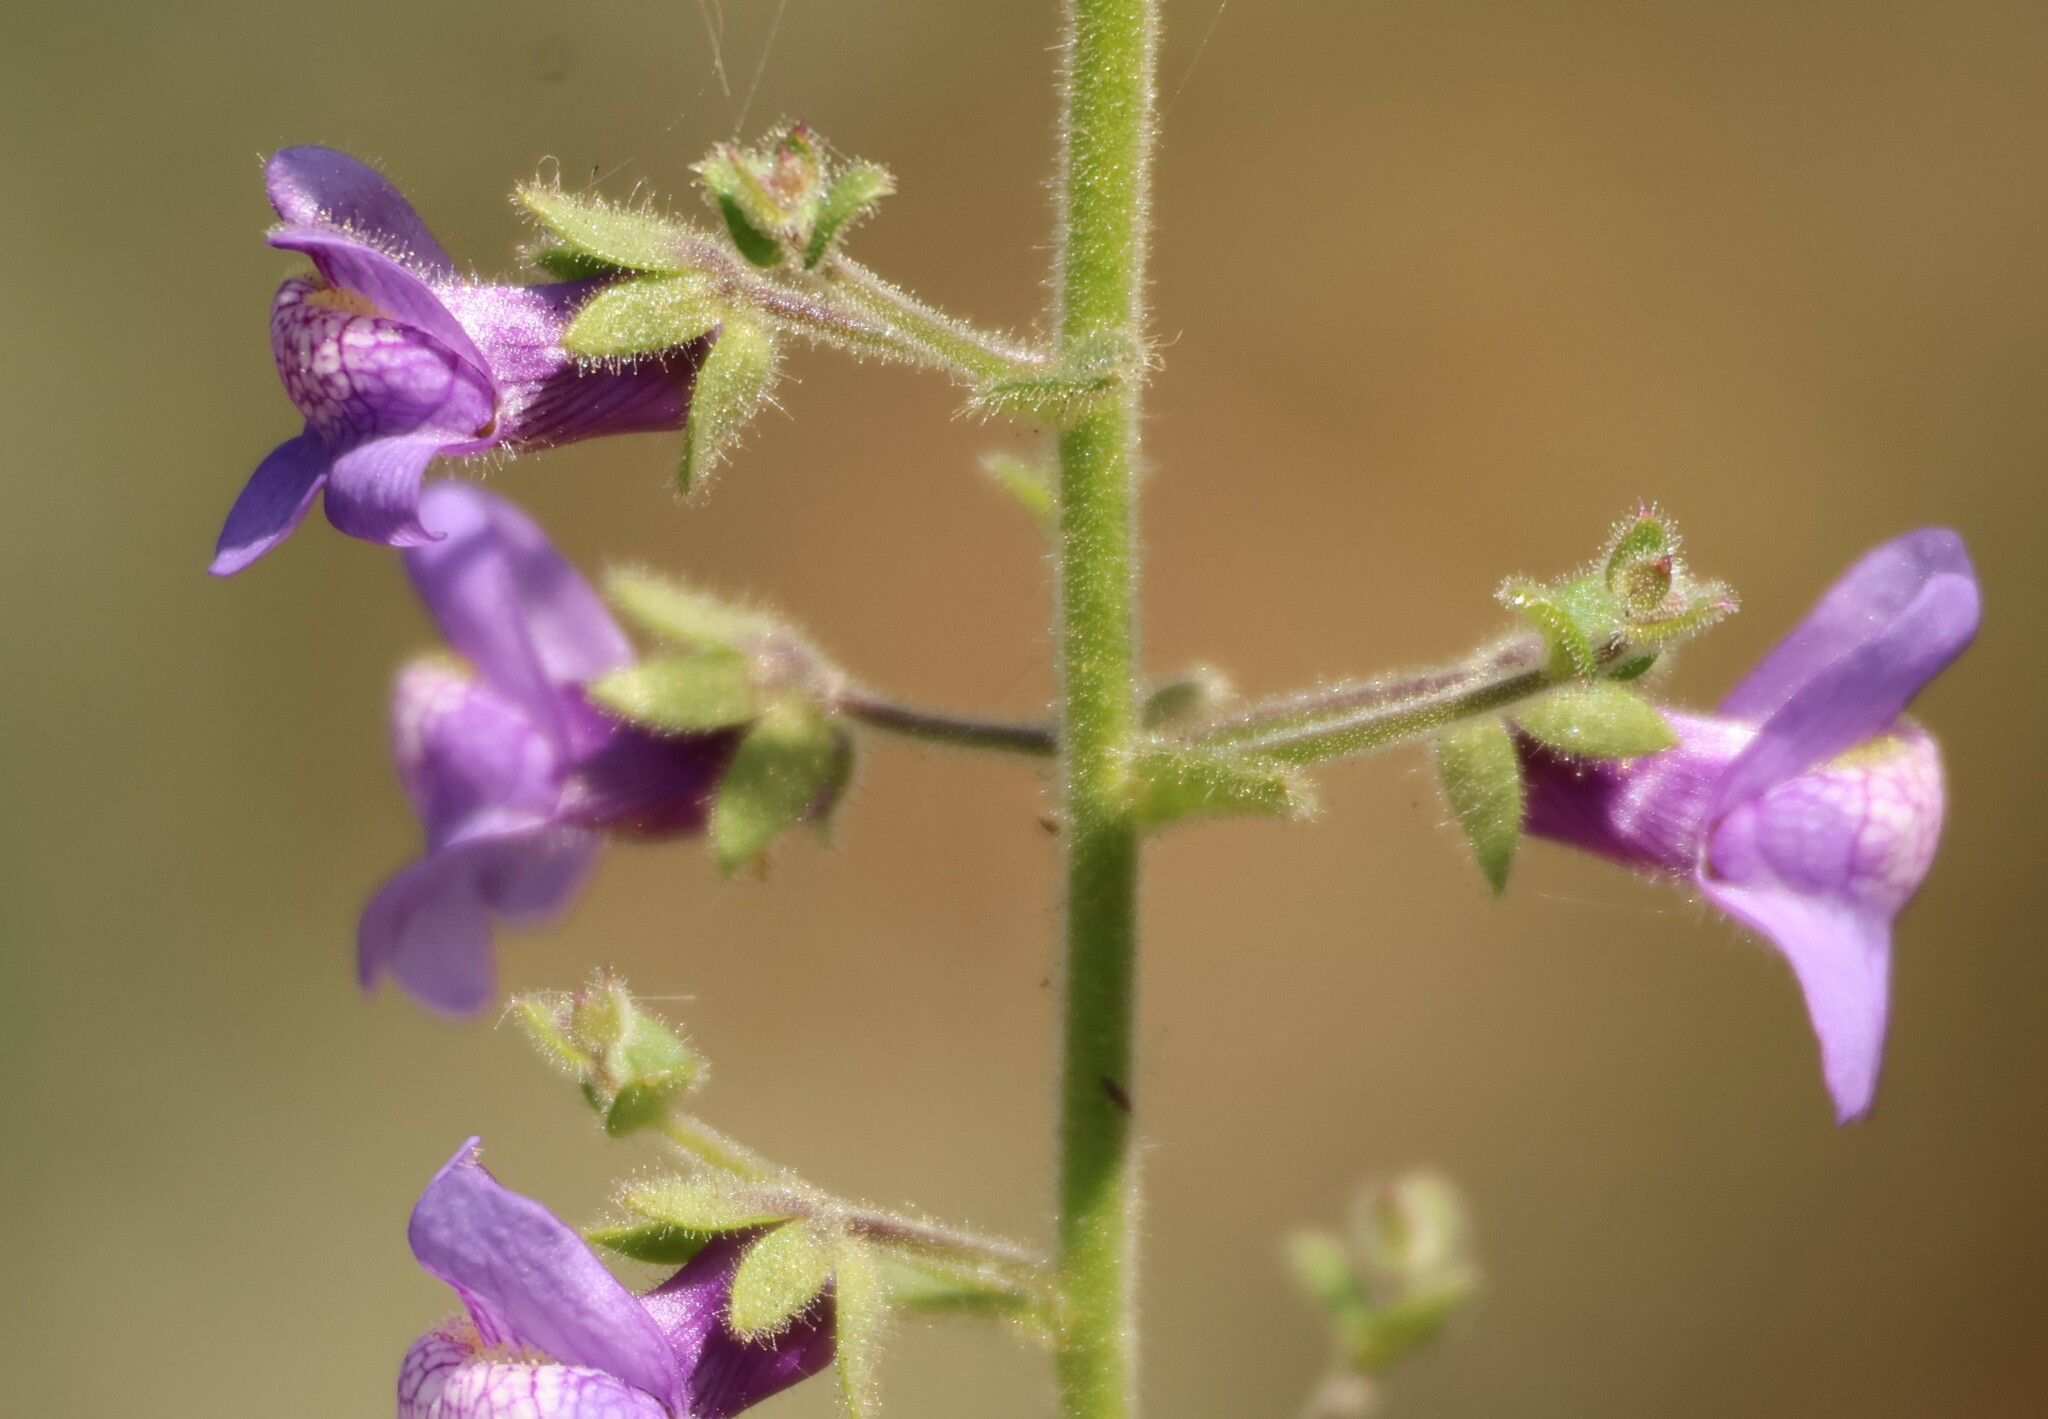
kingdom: Plantae
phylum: Tracheophyta
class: Magnoliopsida
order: Lamiales
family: Plantaginaceae
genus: Sairocarpus
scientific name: Sairocarpus nuttallianus
